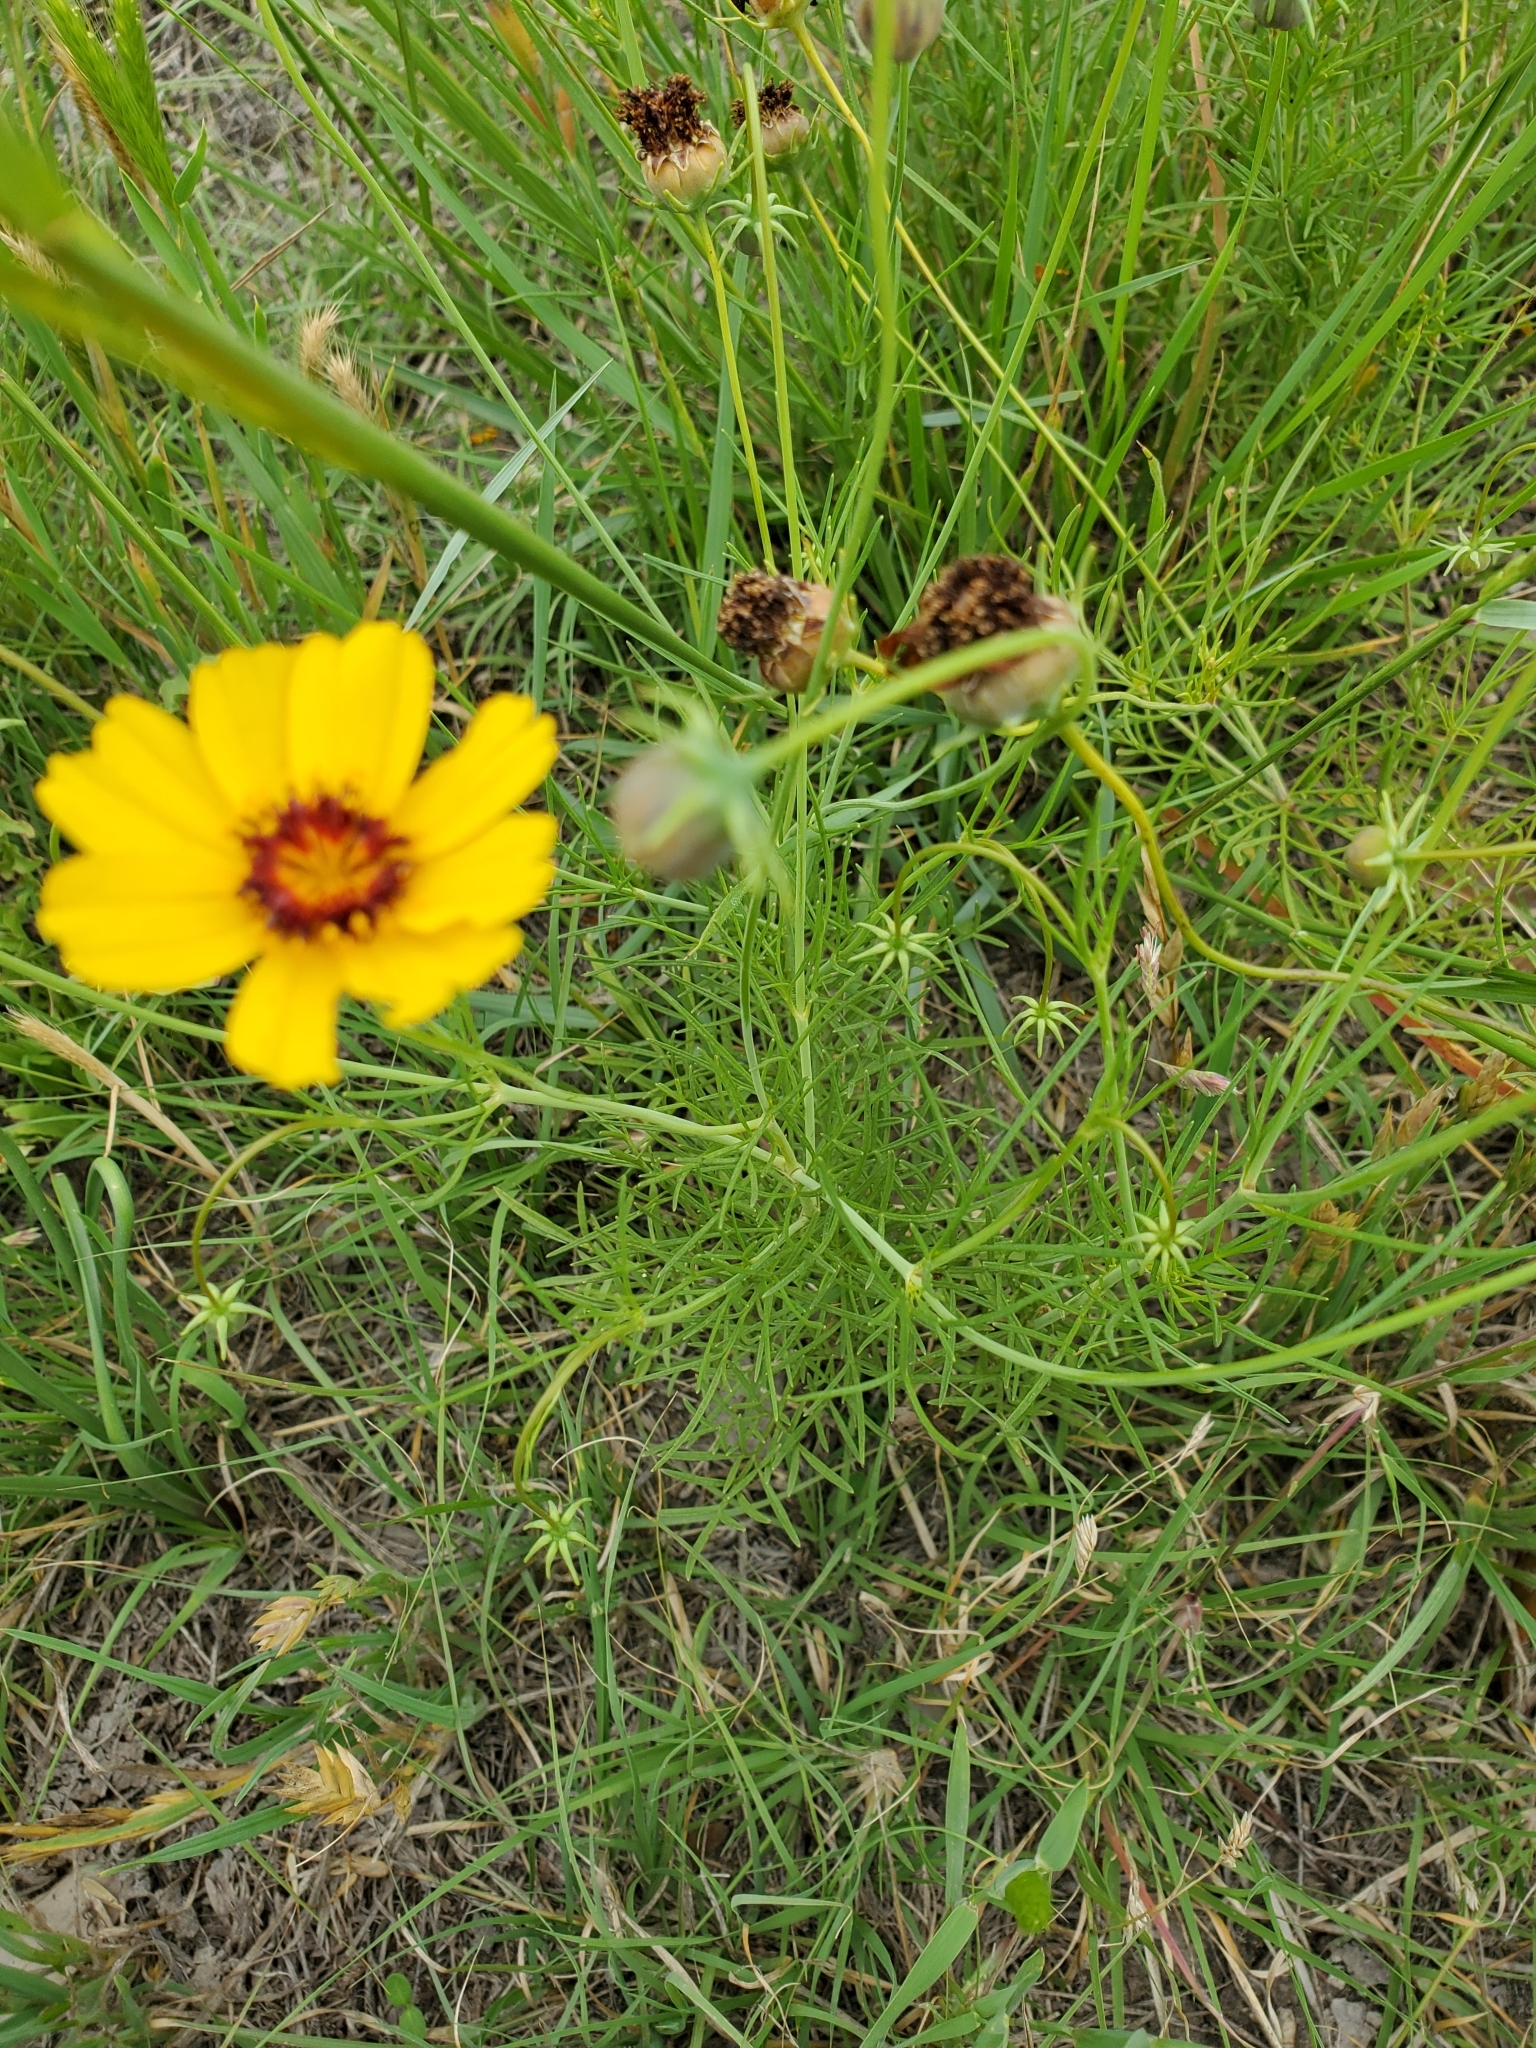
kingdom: Plantae
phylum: Tracheophyta
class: Magnoliopsida
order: Asterales
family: Asteraceae
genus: Thelesperma
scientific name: Thelesperma filifolium
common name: Stiff greenthread
